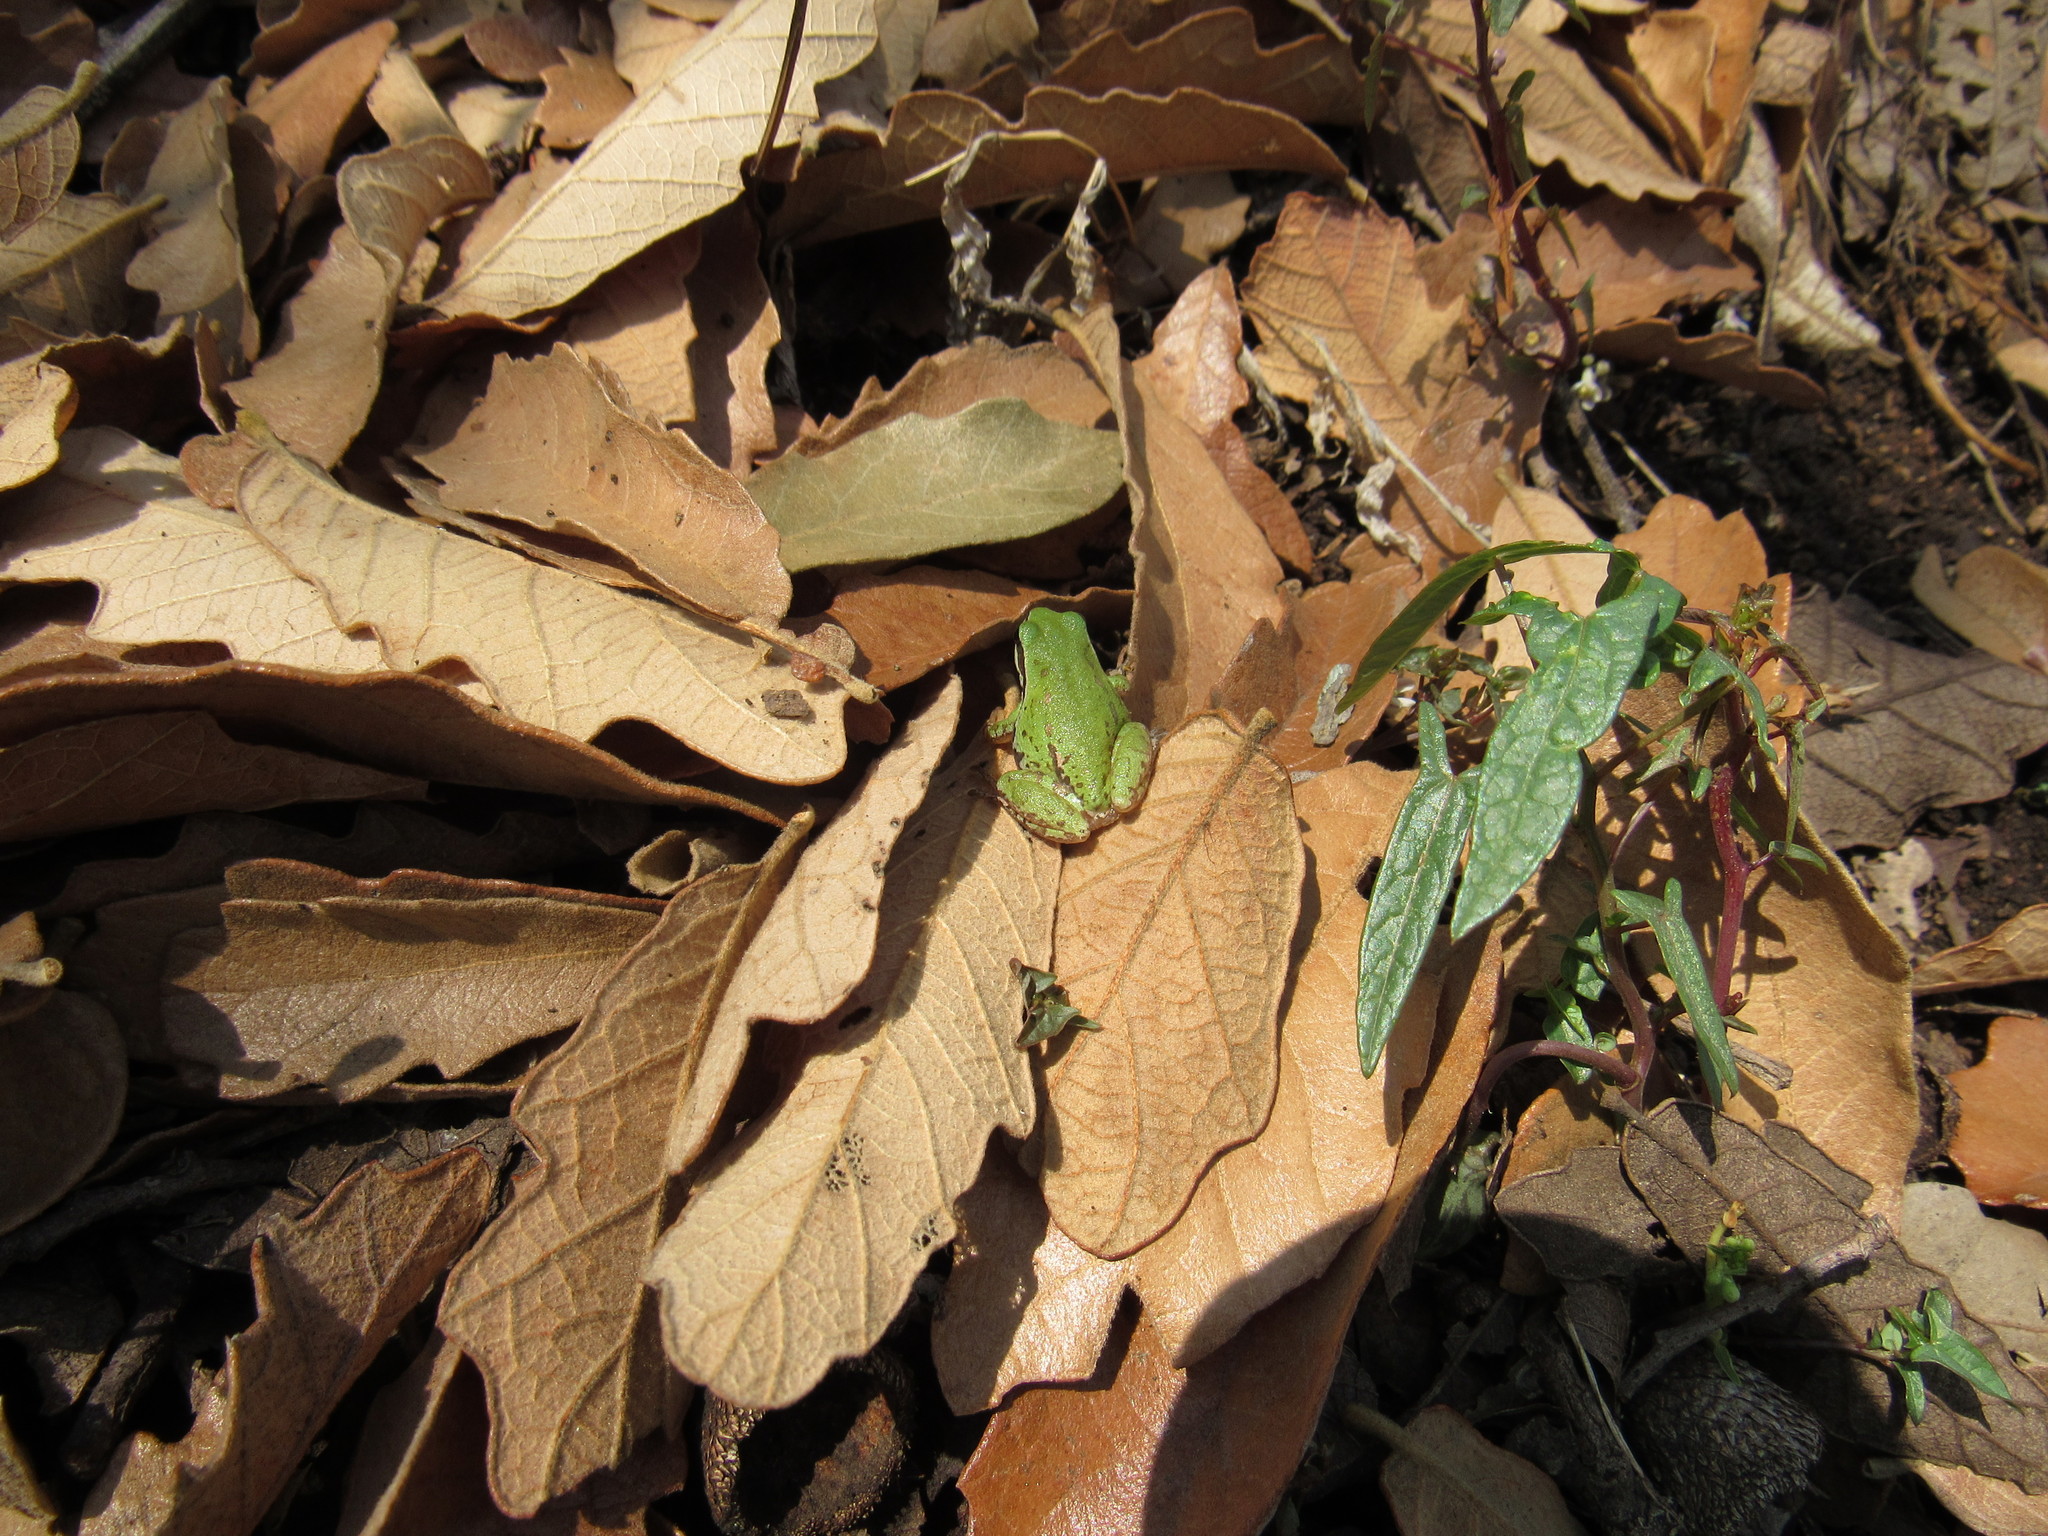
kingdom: Animalia
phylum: Chordata
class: Amphibia
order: Anura
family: Hylidae
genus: Dryophytes
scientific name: Dryophytes eximius
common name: Mountain treefrog
